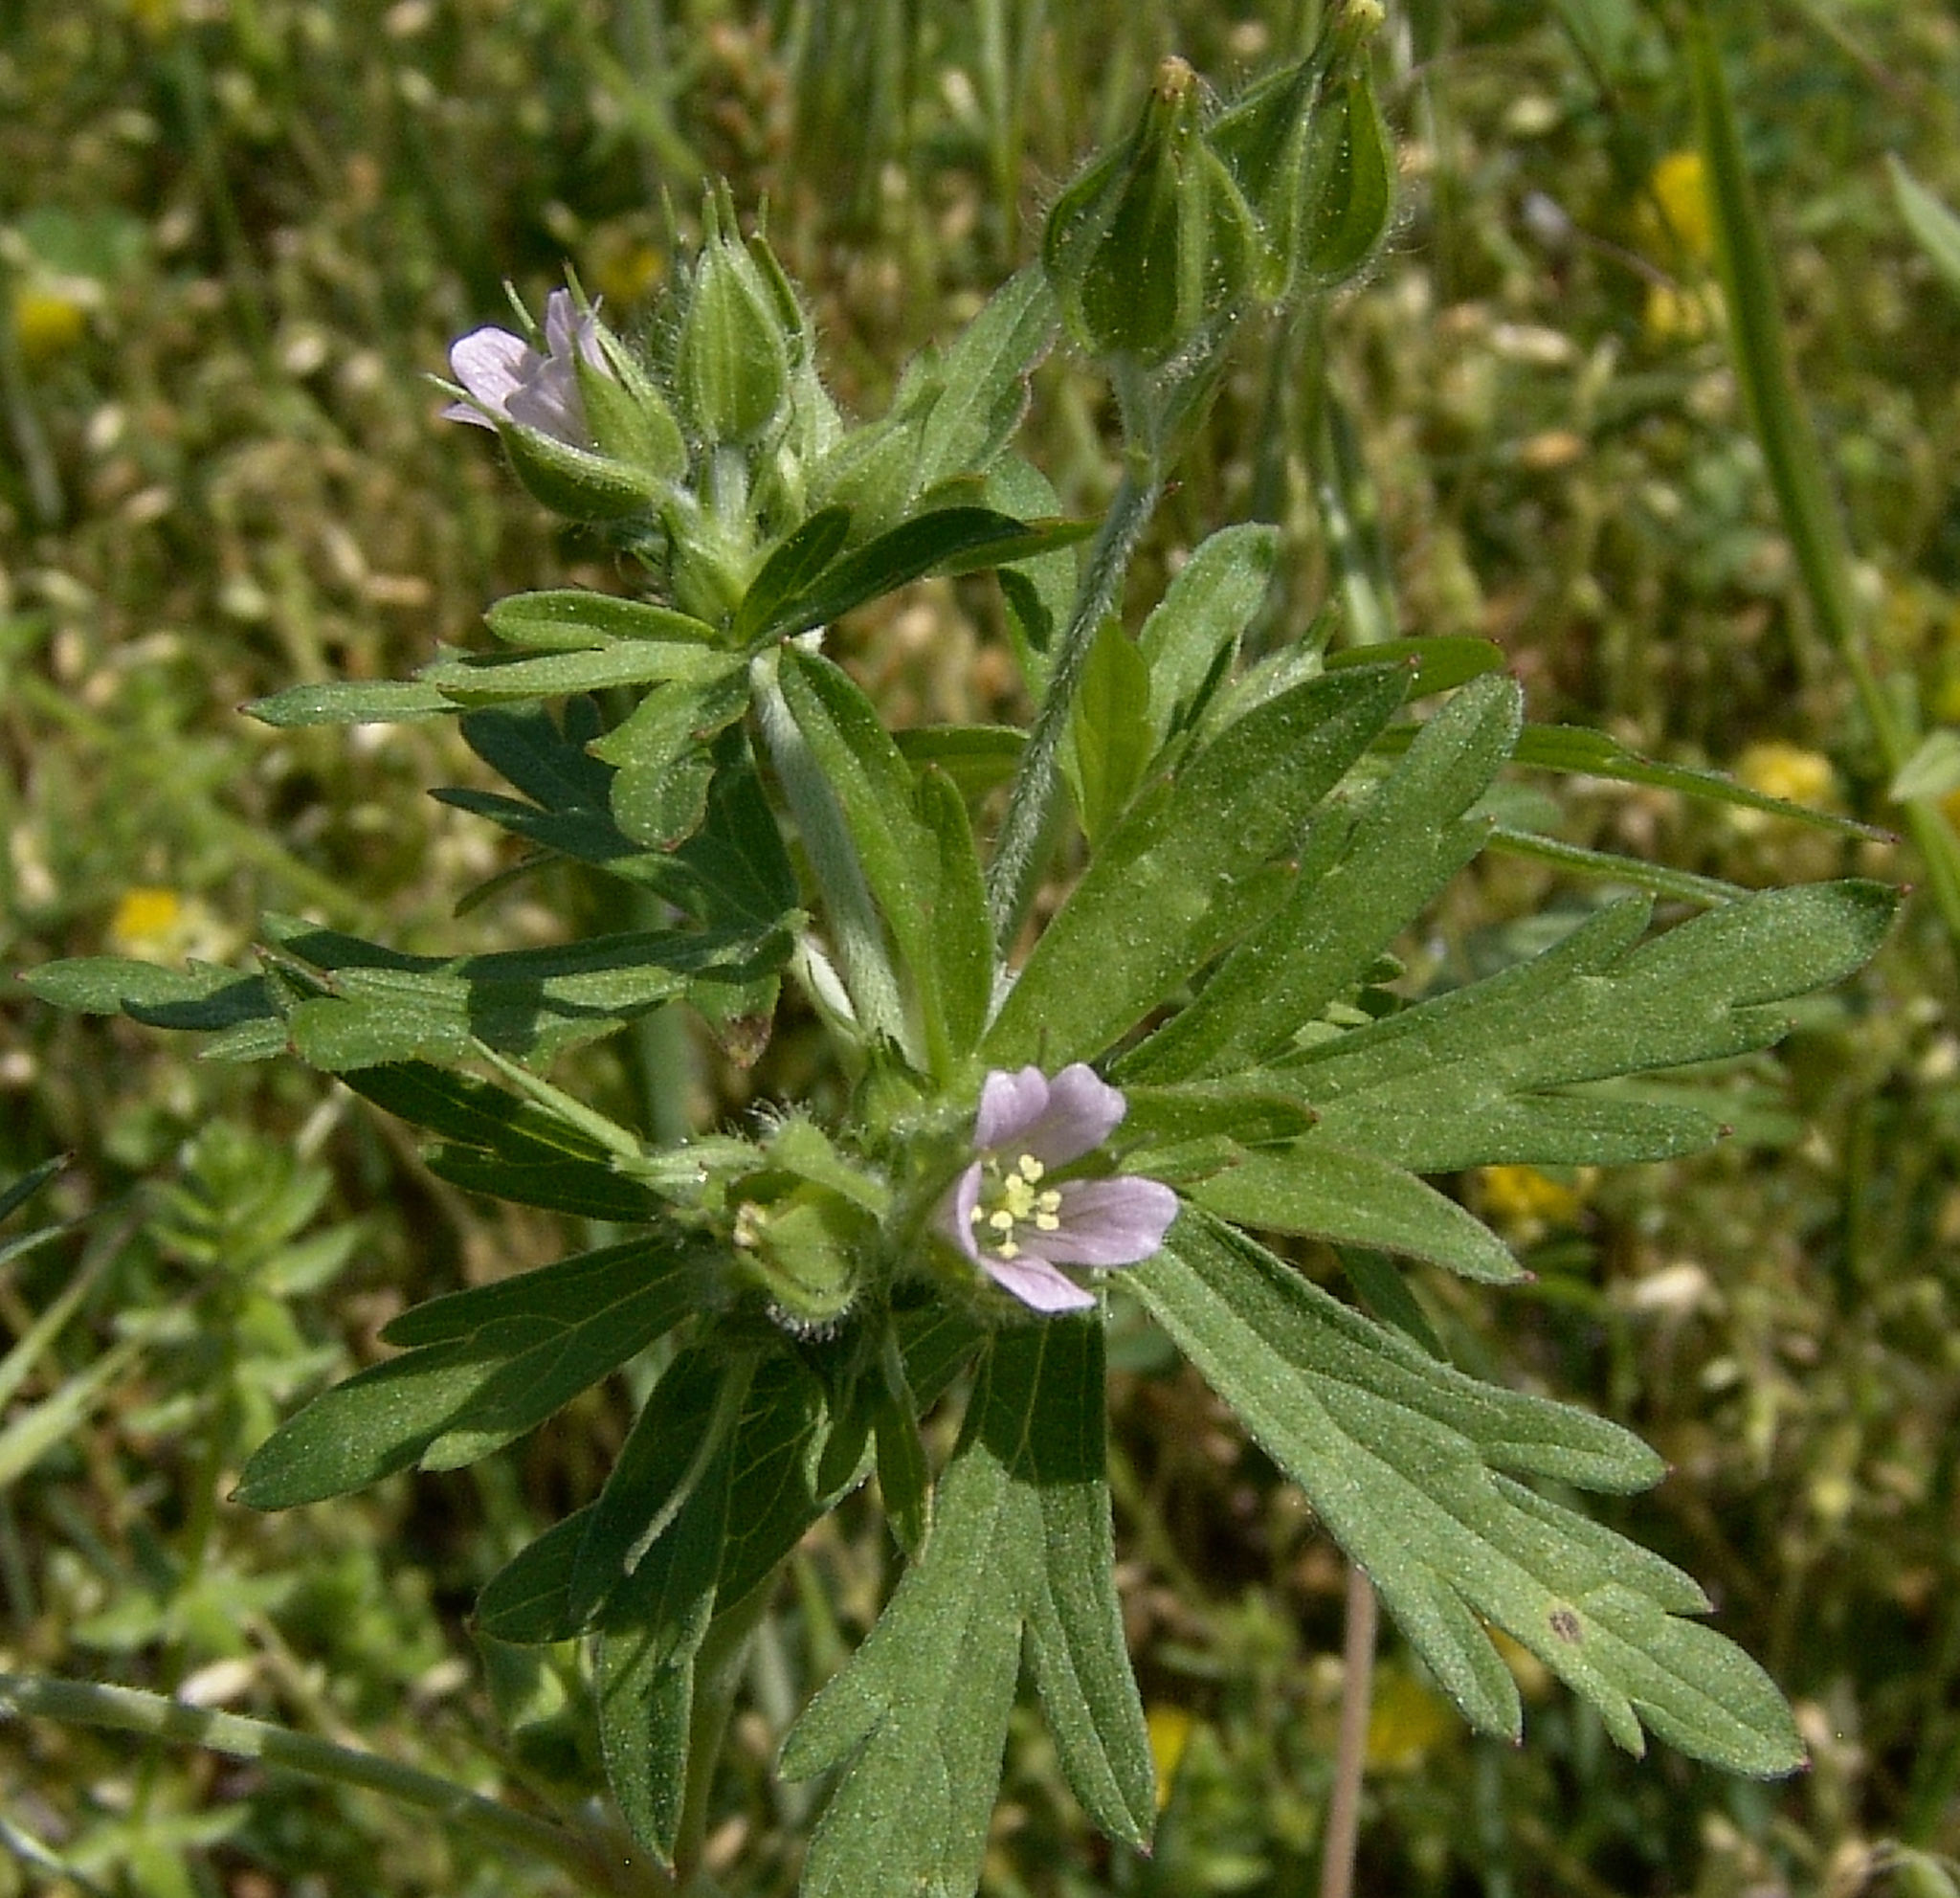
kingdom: Plantae
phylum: Tracheophyta
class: Magnoliopsida
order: Geraniales
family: Geraniaceae
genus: Geranium
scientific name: Geranium carolinianum
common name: Carolina crane's-bill
